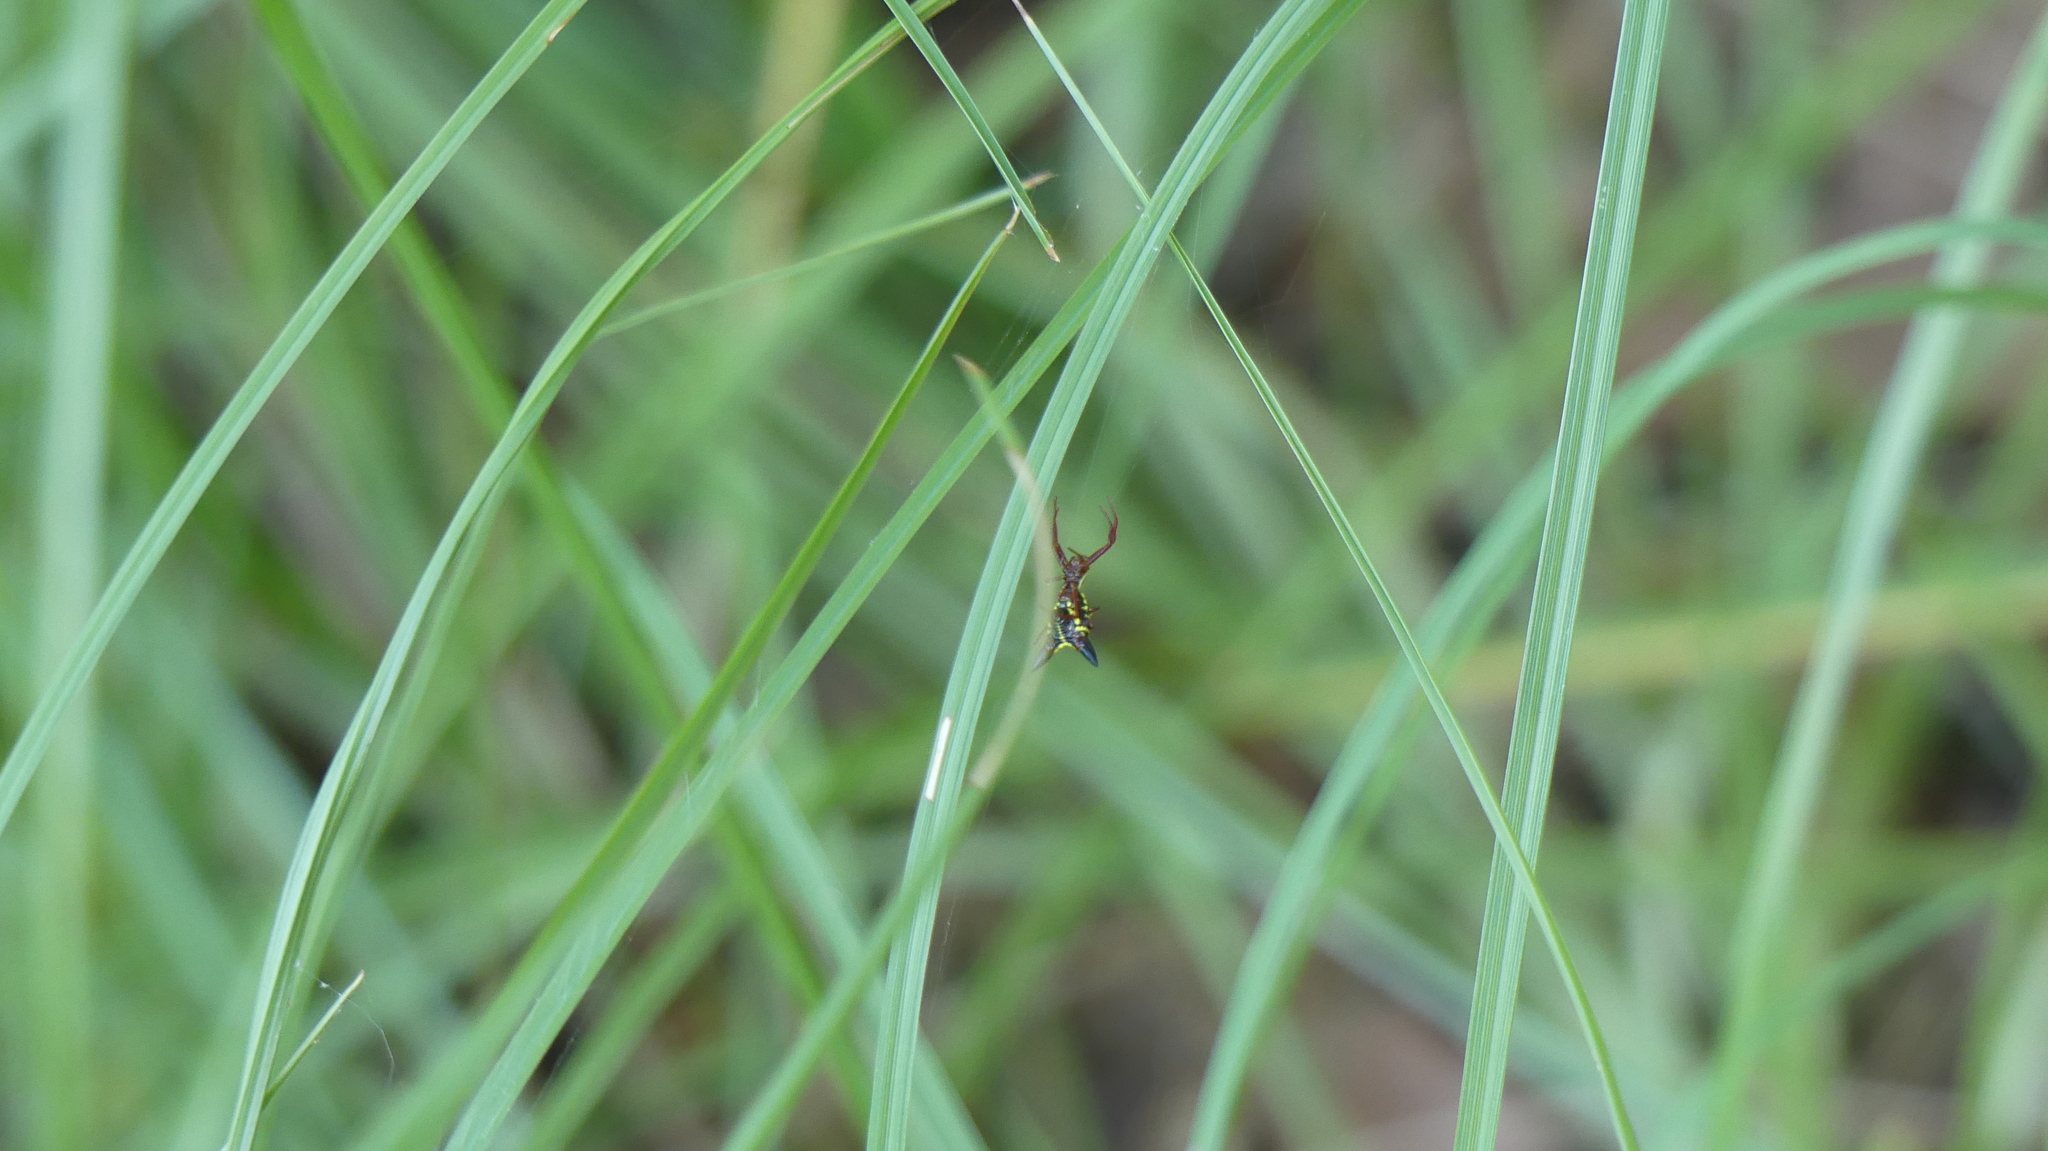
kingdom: Animalia
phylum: Arthropoda
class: Arachnida
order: Araneae
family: Araneidae
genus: Micrathena
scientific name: Micrathena sagittata
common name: Orb weavers
